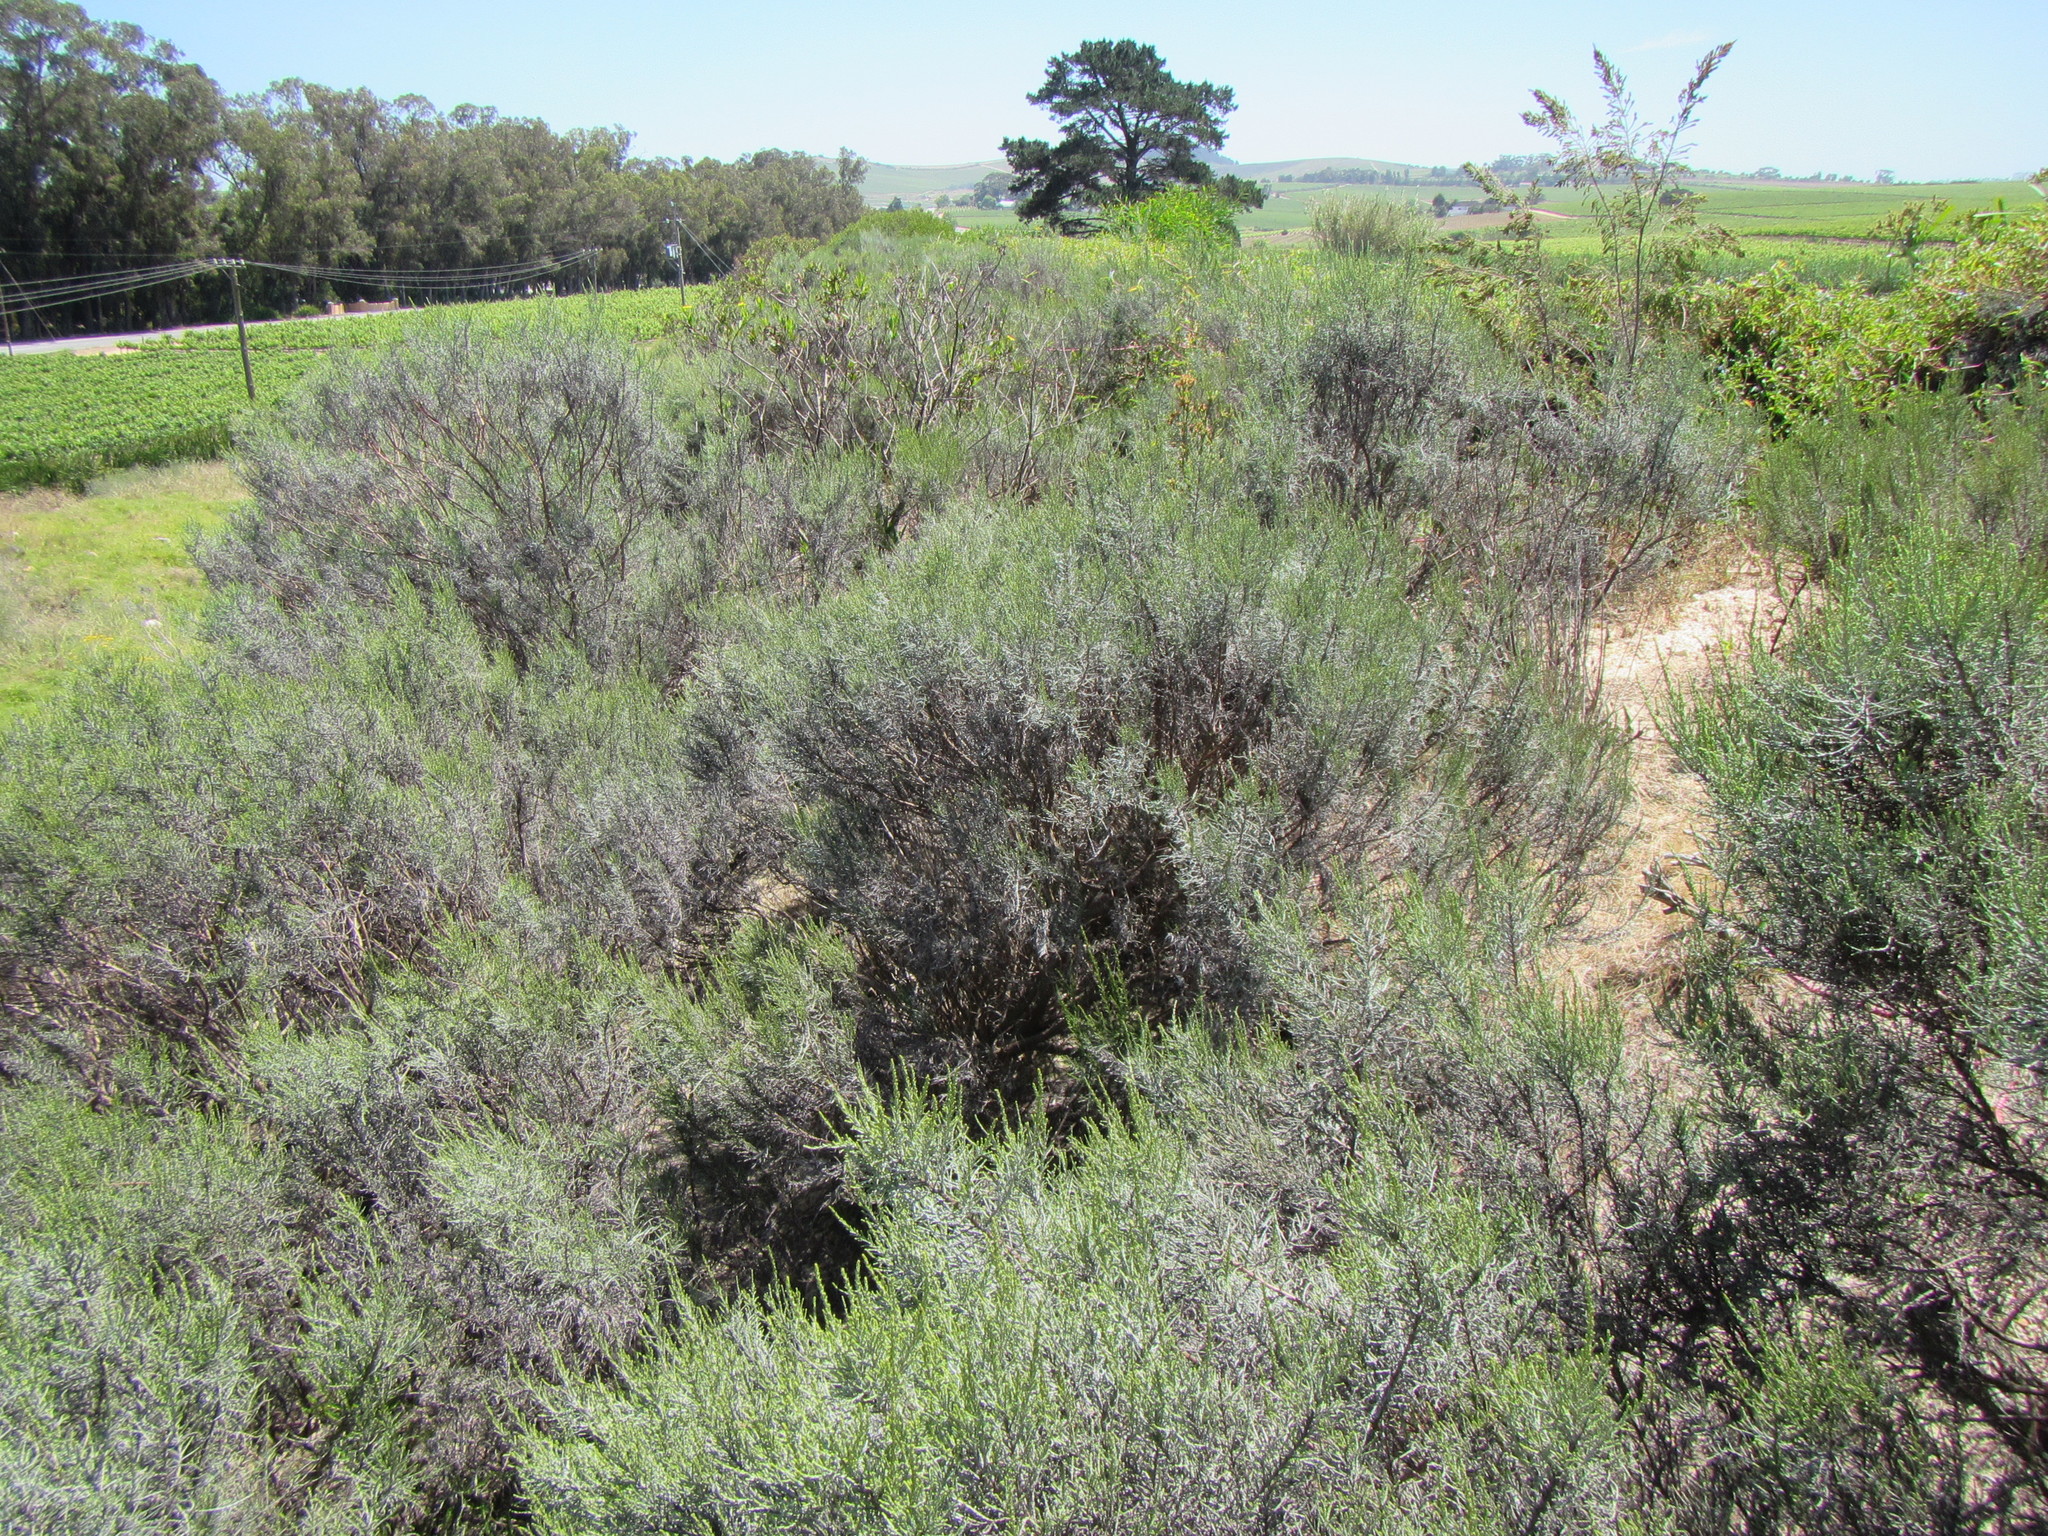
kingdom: Plantae
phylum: Tracheophyta
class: Magnoliopsida
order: Asterales
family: Asteraceae
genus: Dicerothamnus
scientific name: Dicerothamnus rhinocerotis
